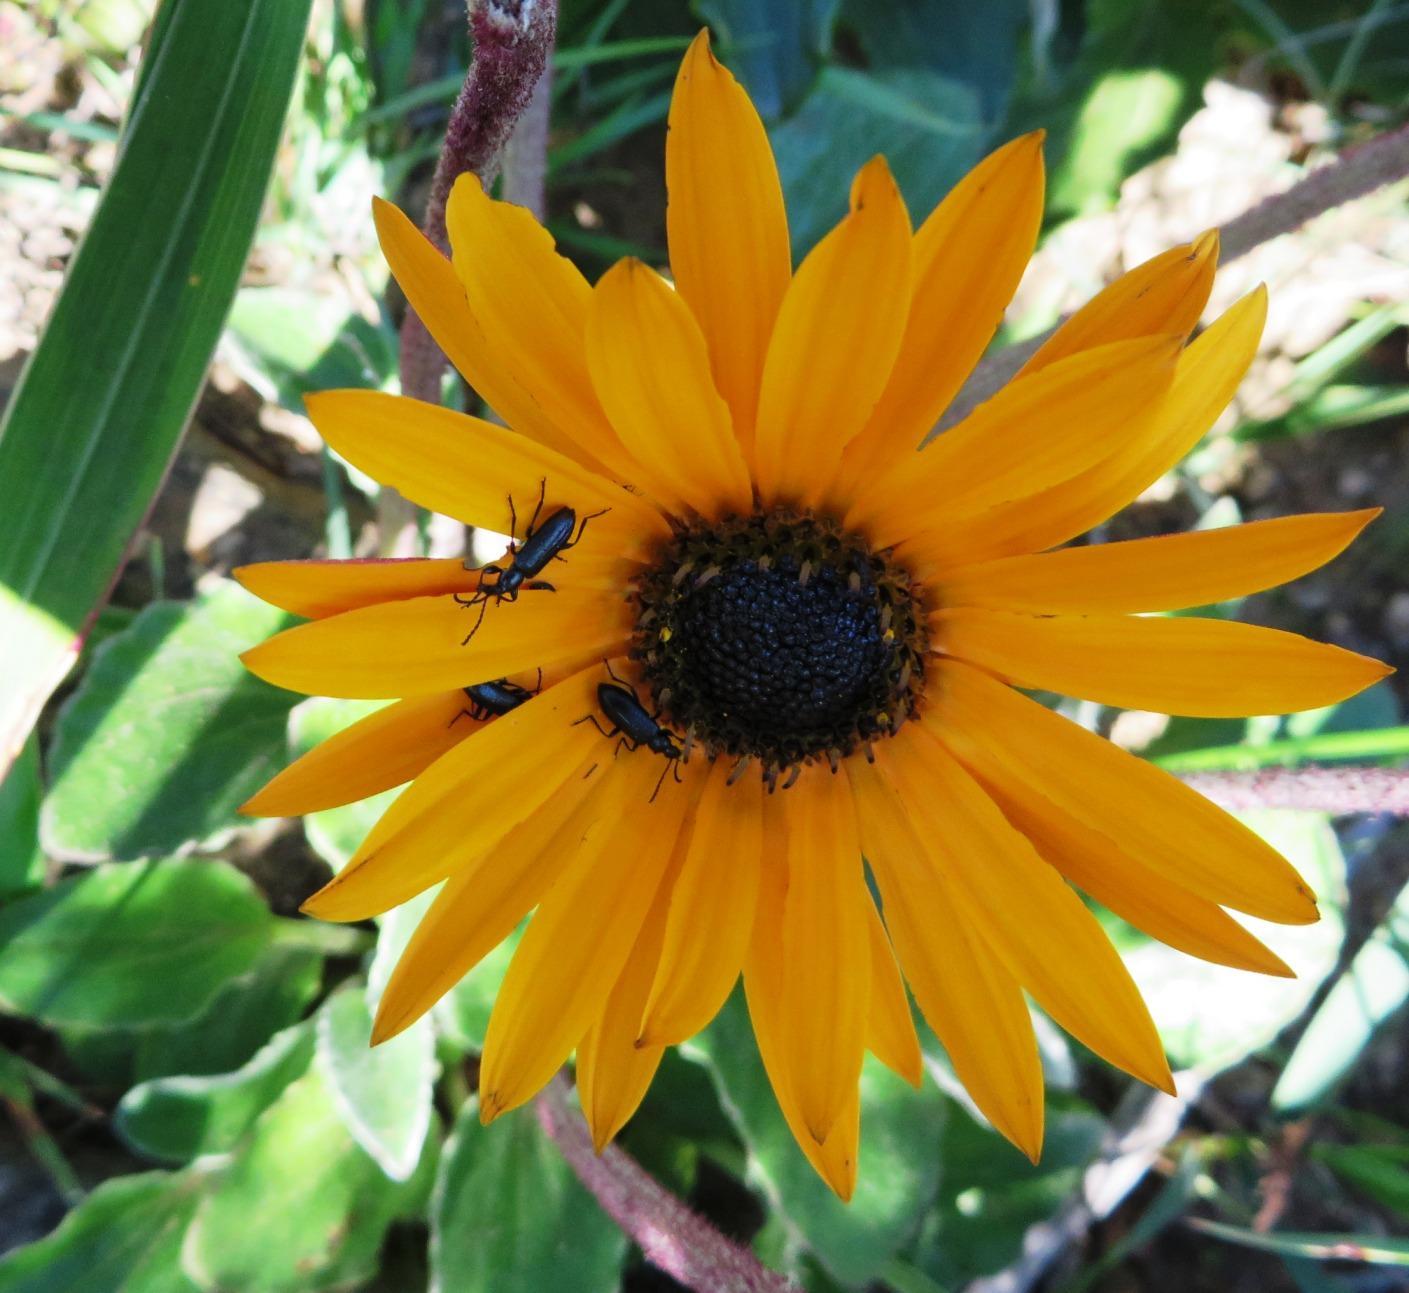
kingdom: Plantae
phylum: Tracheophyta
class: Magnoliopsida
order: Asterales
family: Asteraceae
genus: Arctotis
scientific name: Arctotis acaulis
